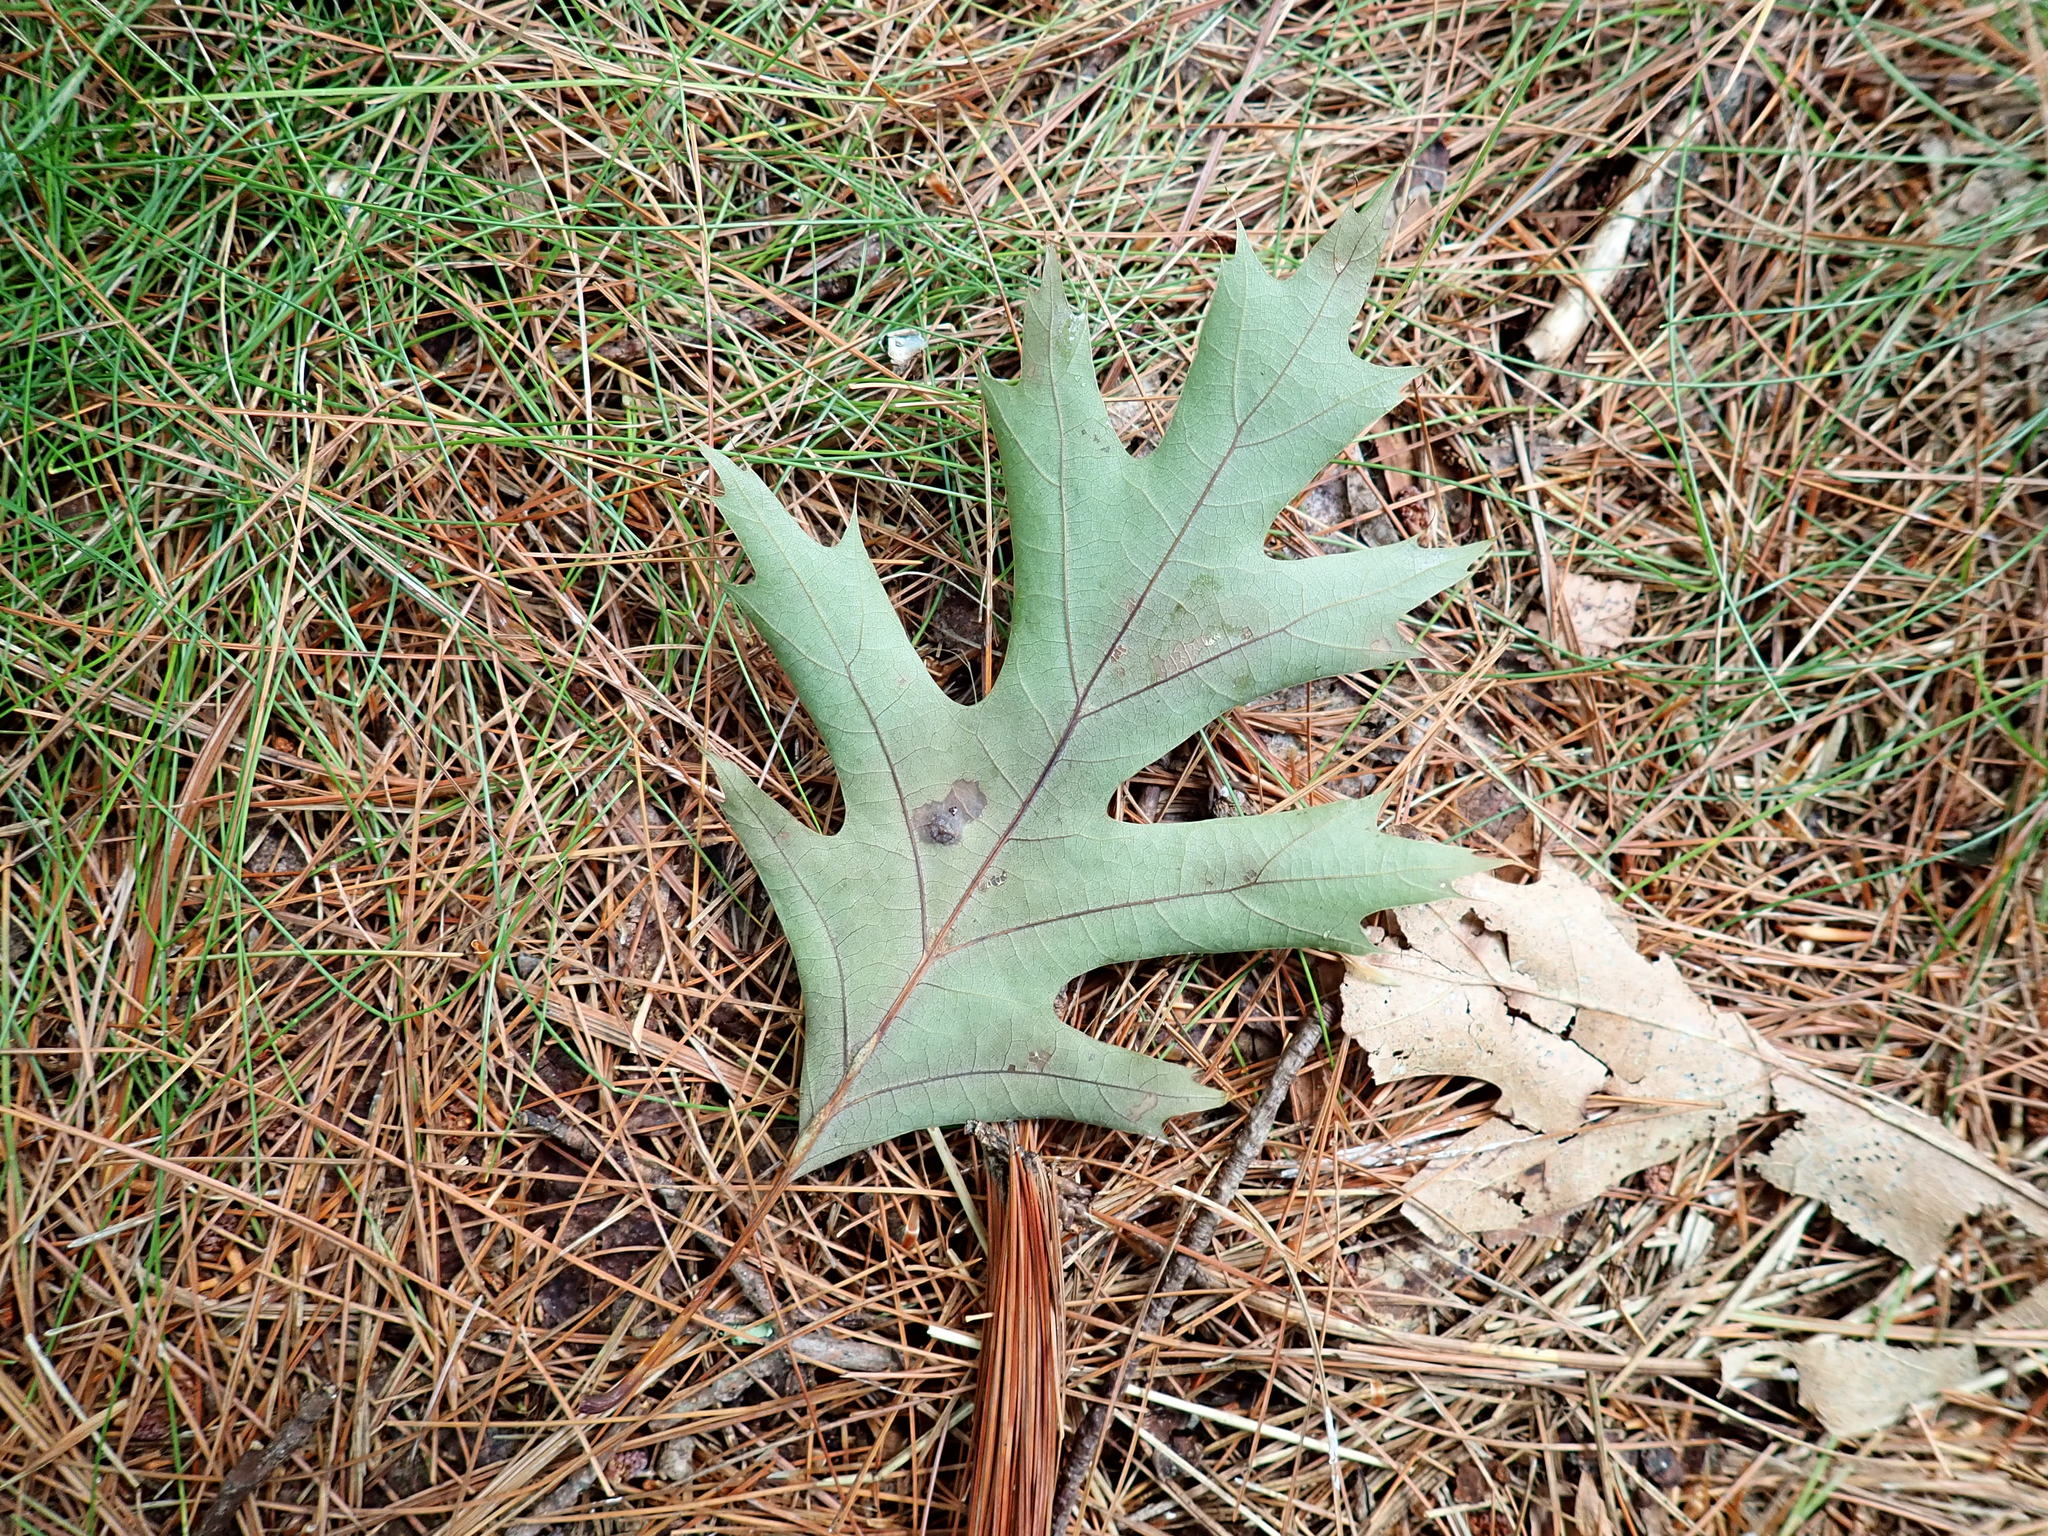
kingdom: Plantae
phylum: Tracheophyta
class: Magnoliopsida
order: Fagales
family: Fagaceae
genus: Quercus
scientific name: Quercus rubra
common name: Red oak
